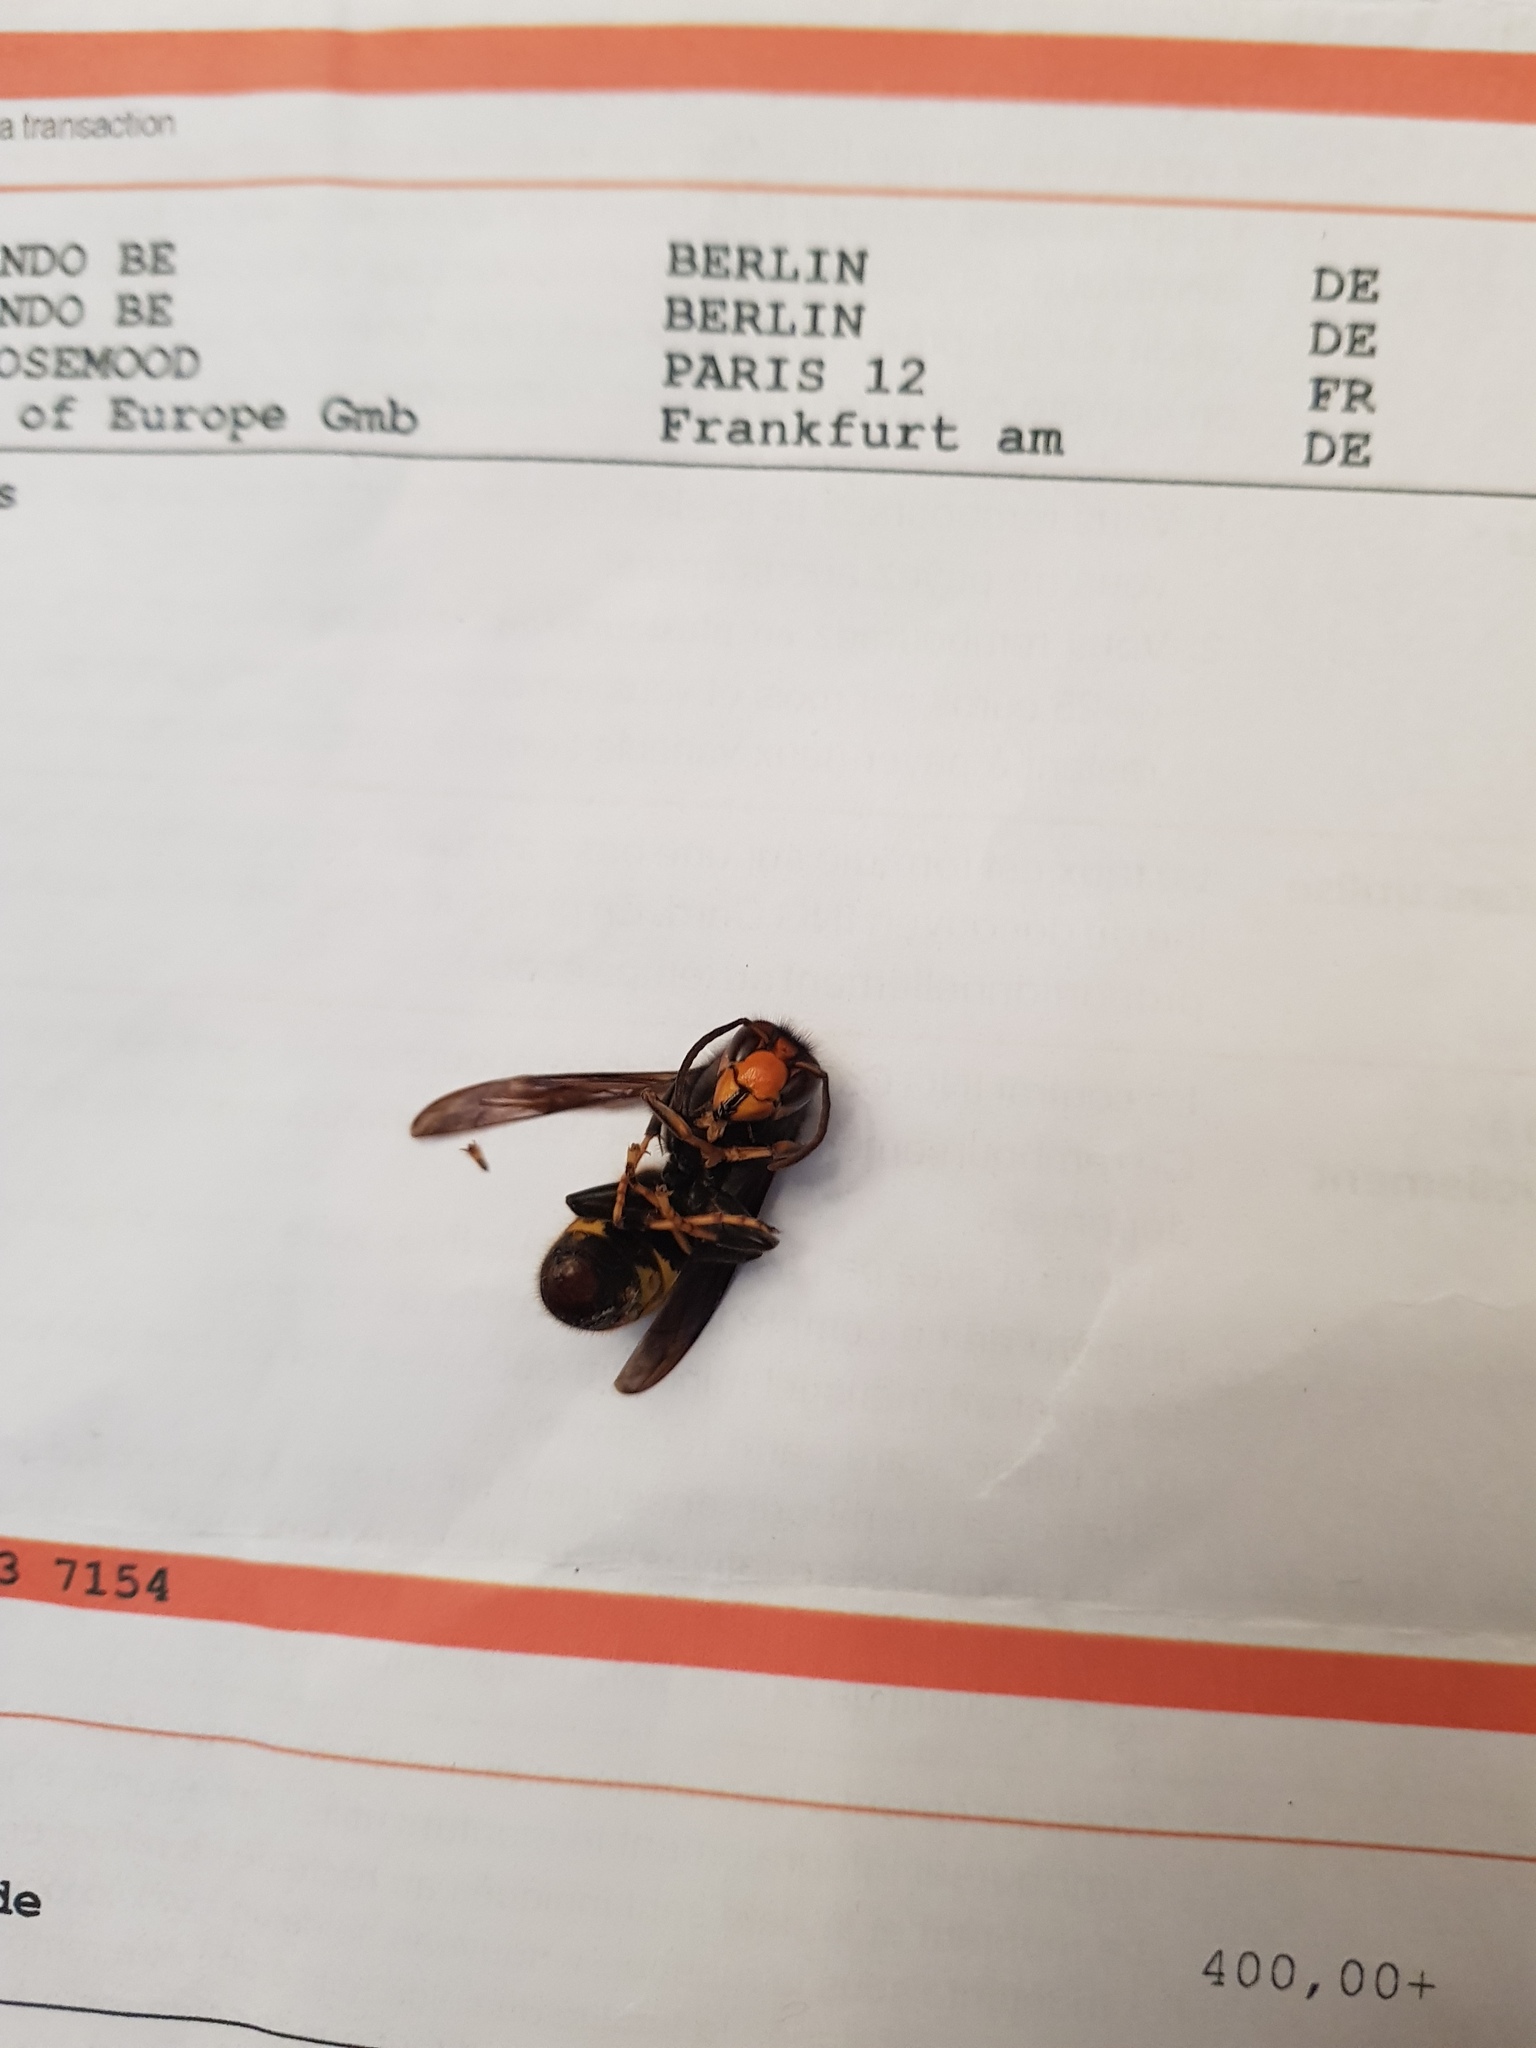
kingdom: Animalia
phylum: Arthropoda
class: Insecta
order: Hymenoptera
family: Vespidae
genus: Vespa
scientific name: Vespa velutina
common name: Asian hornet
